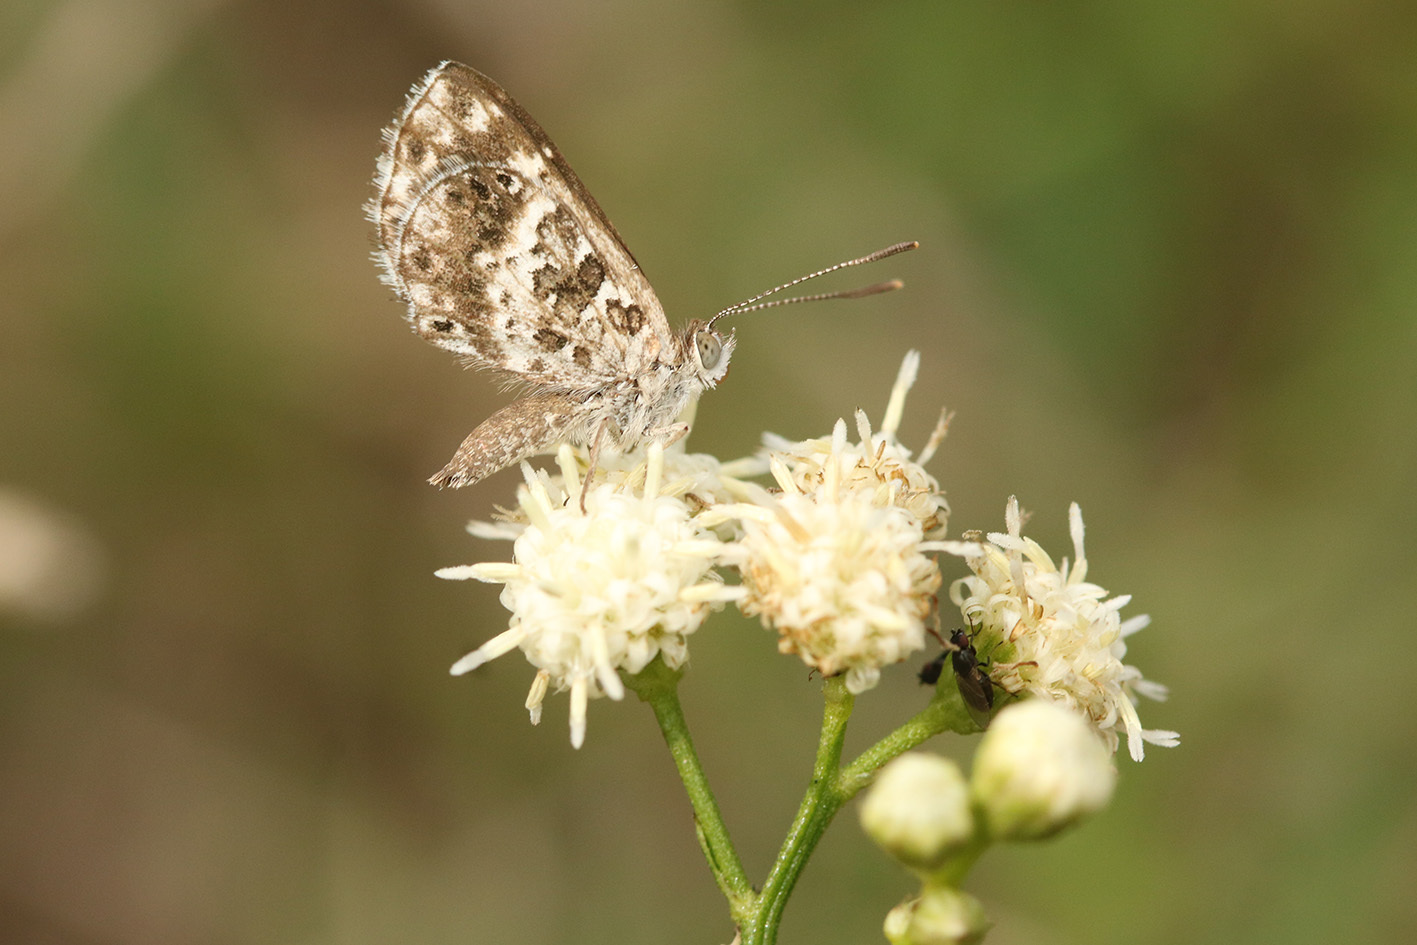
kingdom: Animalia
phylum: Arthropoda
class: Insecta
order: Lepidoptera
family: Lycaenidae
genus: Aricoris
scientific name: Aricoris signata
